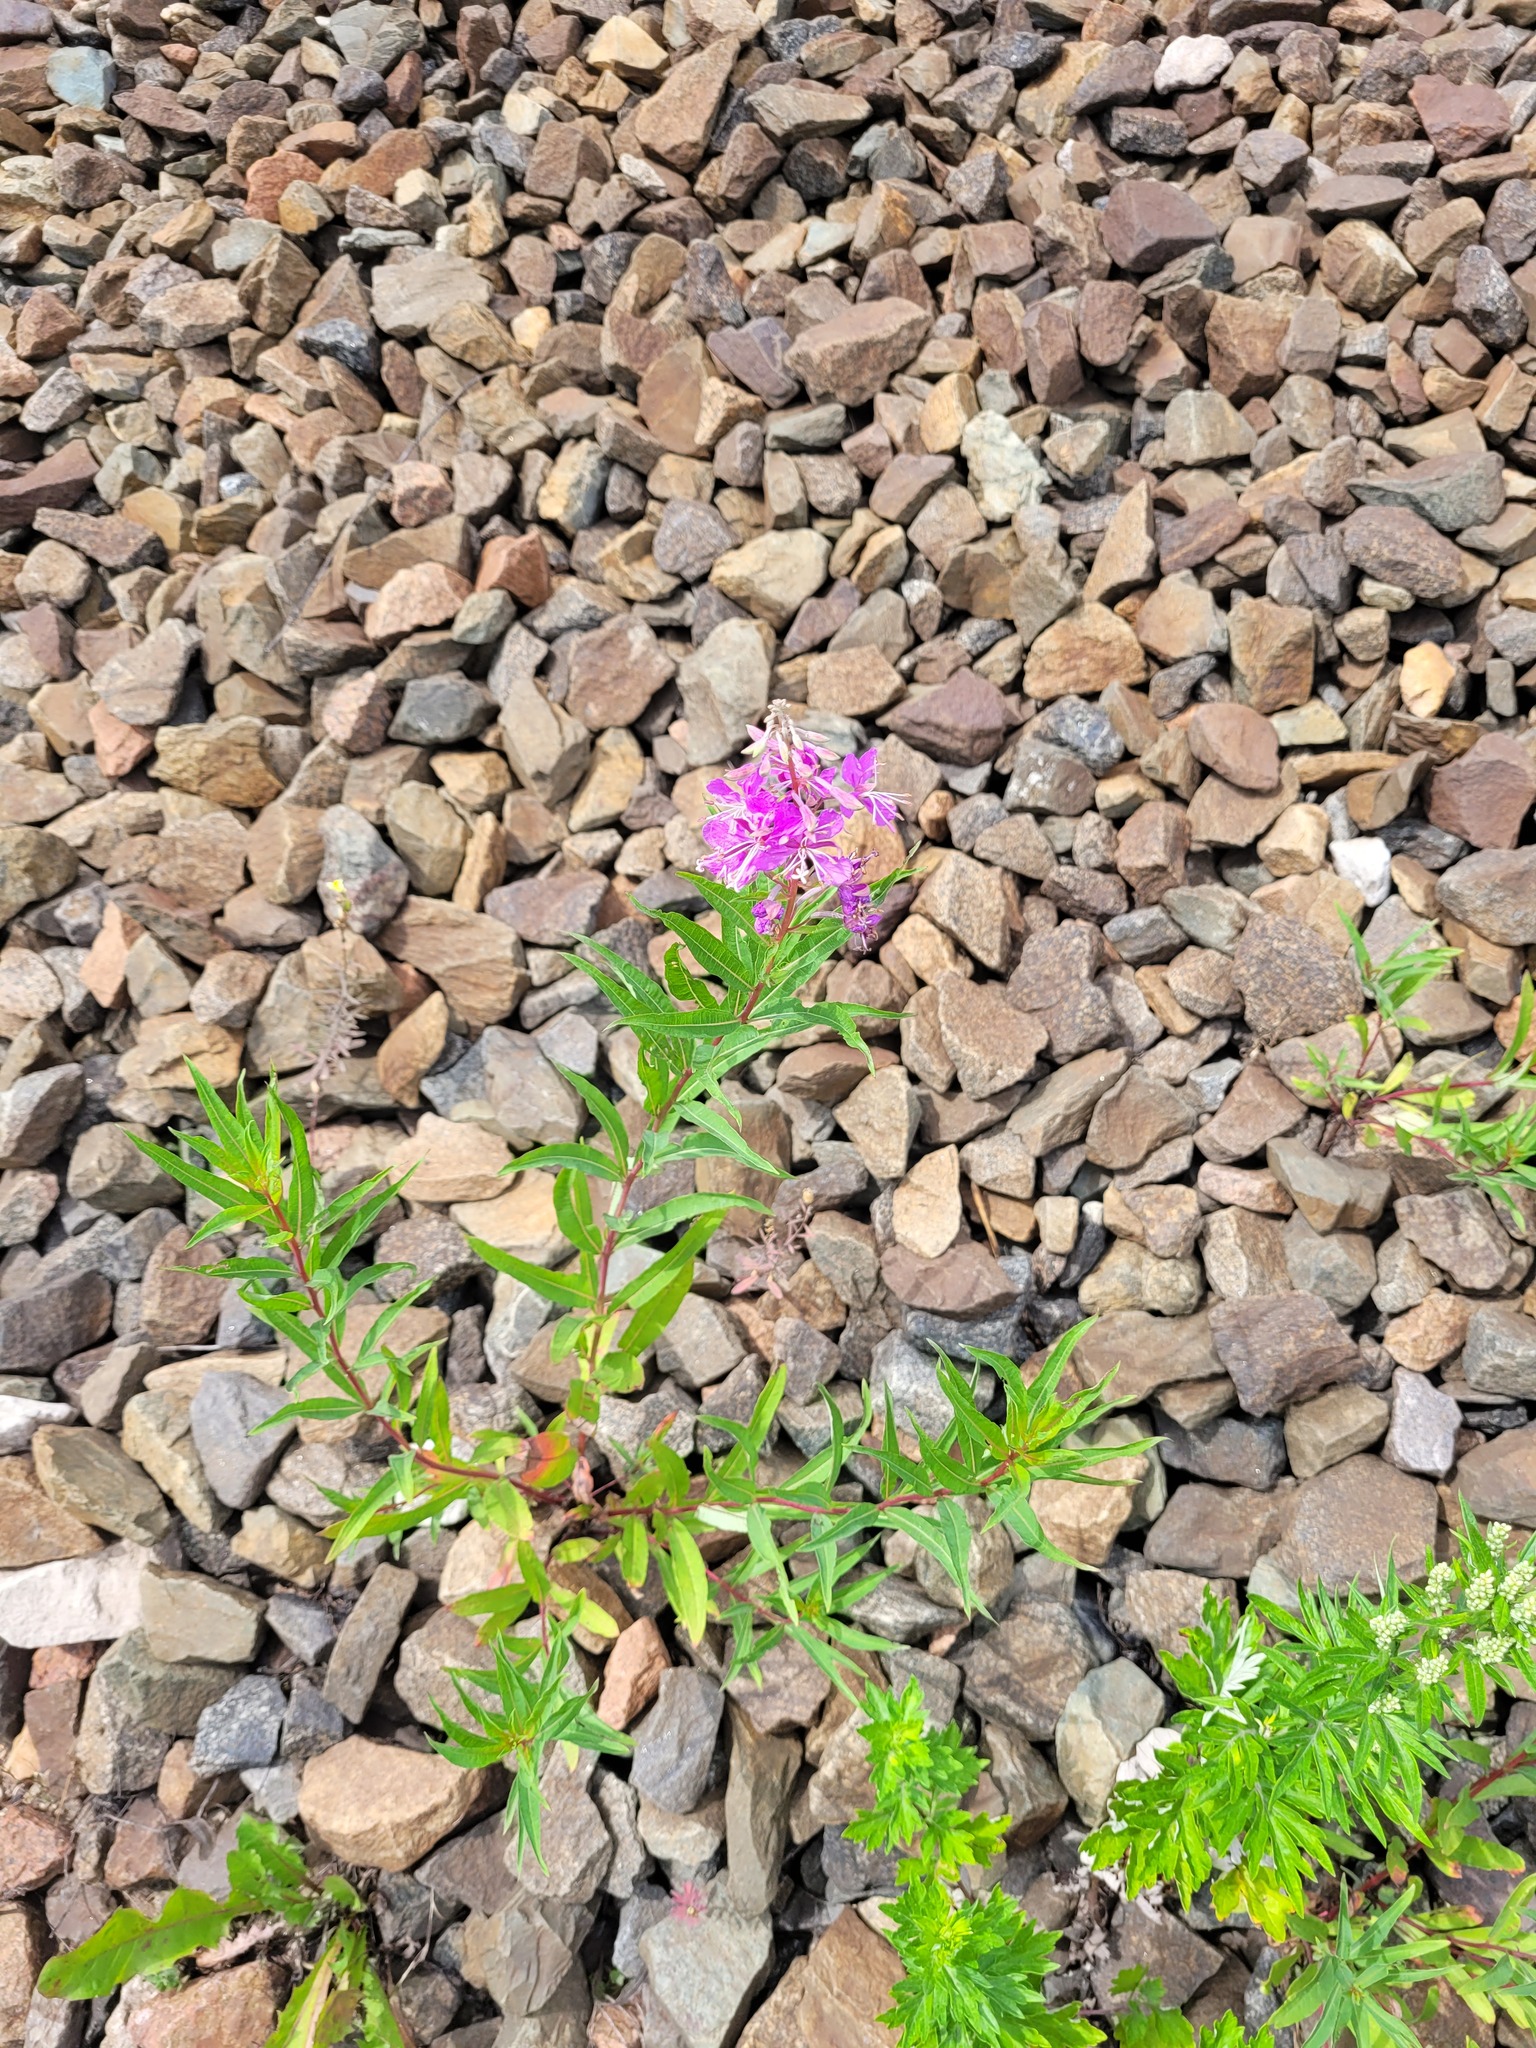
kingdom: Plantae
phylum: Tracheophyta
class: Magnoliopsida
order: Myrtales
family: Onagraceae
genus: Chamaenerion
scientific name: Chamaenerion angustifolium
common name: Fireweed
